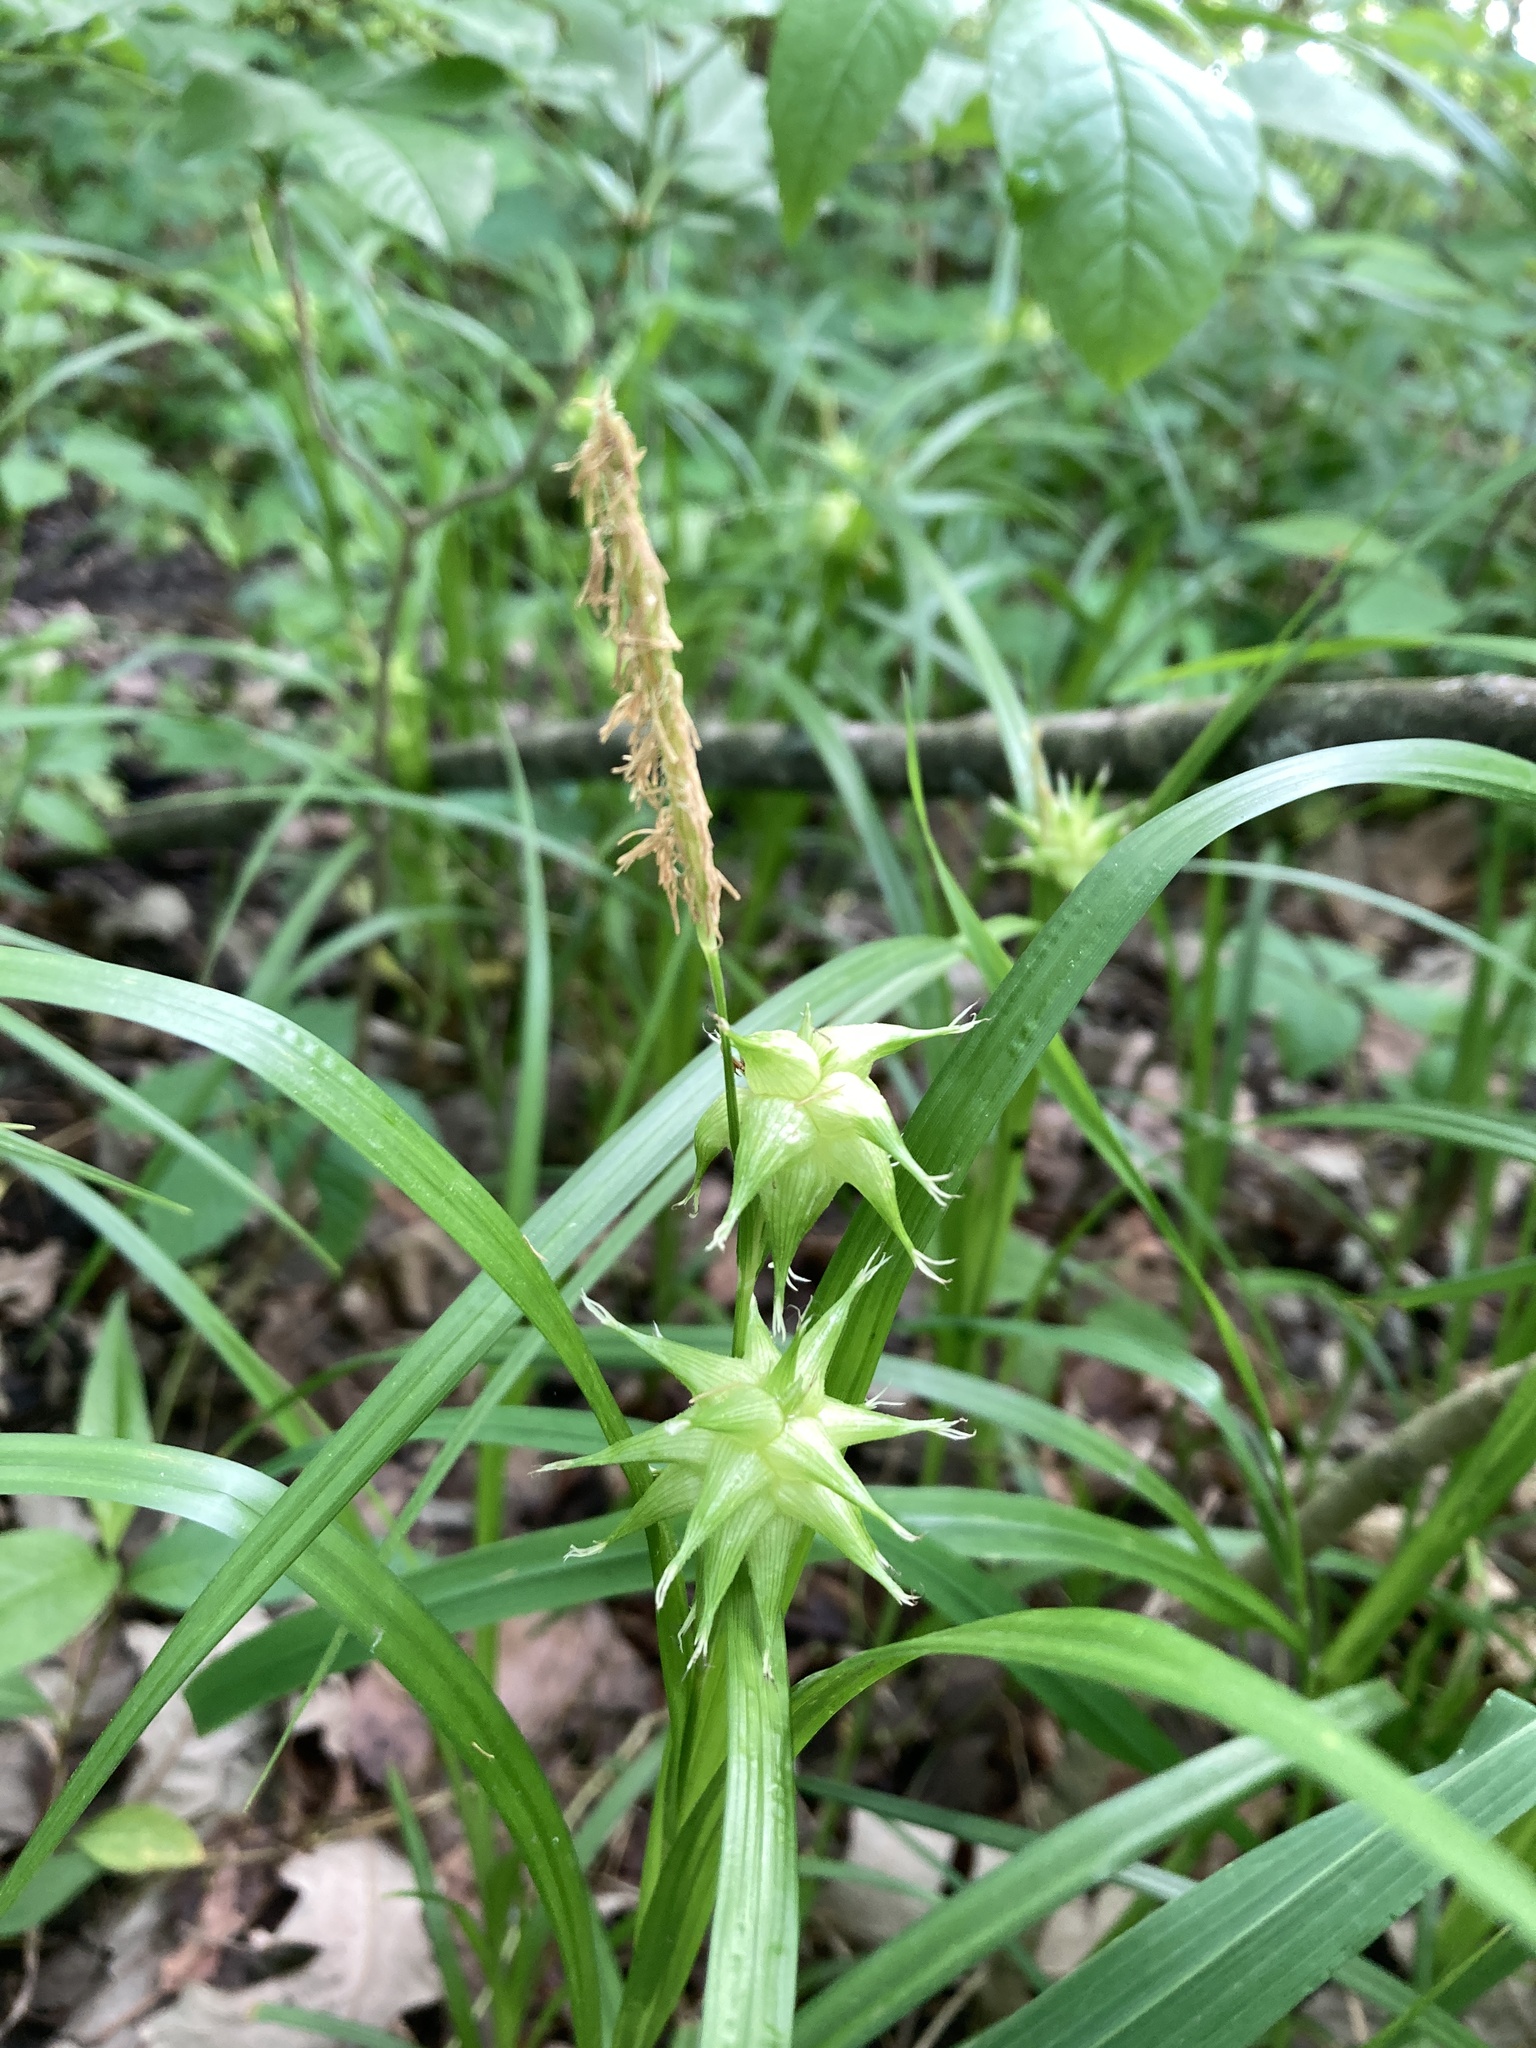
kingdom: Plantae
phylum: Tracheophyta
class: Liliopsida
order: Poales
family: Cyperaceae
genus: Carex
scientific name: Carex grayi
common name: Asa gray's sedge
